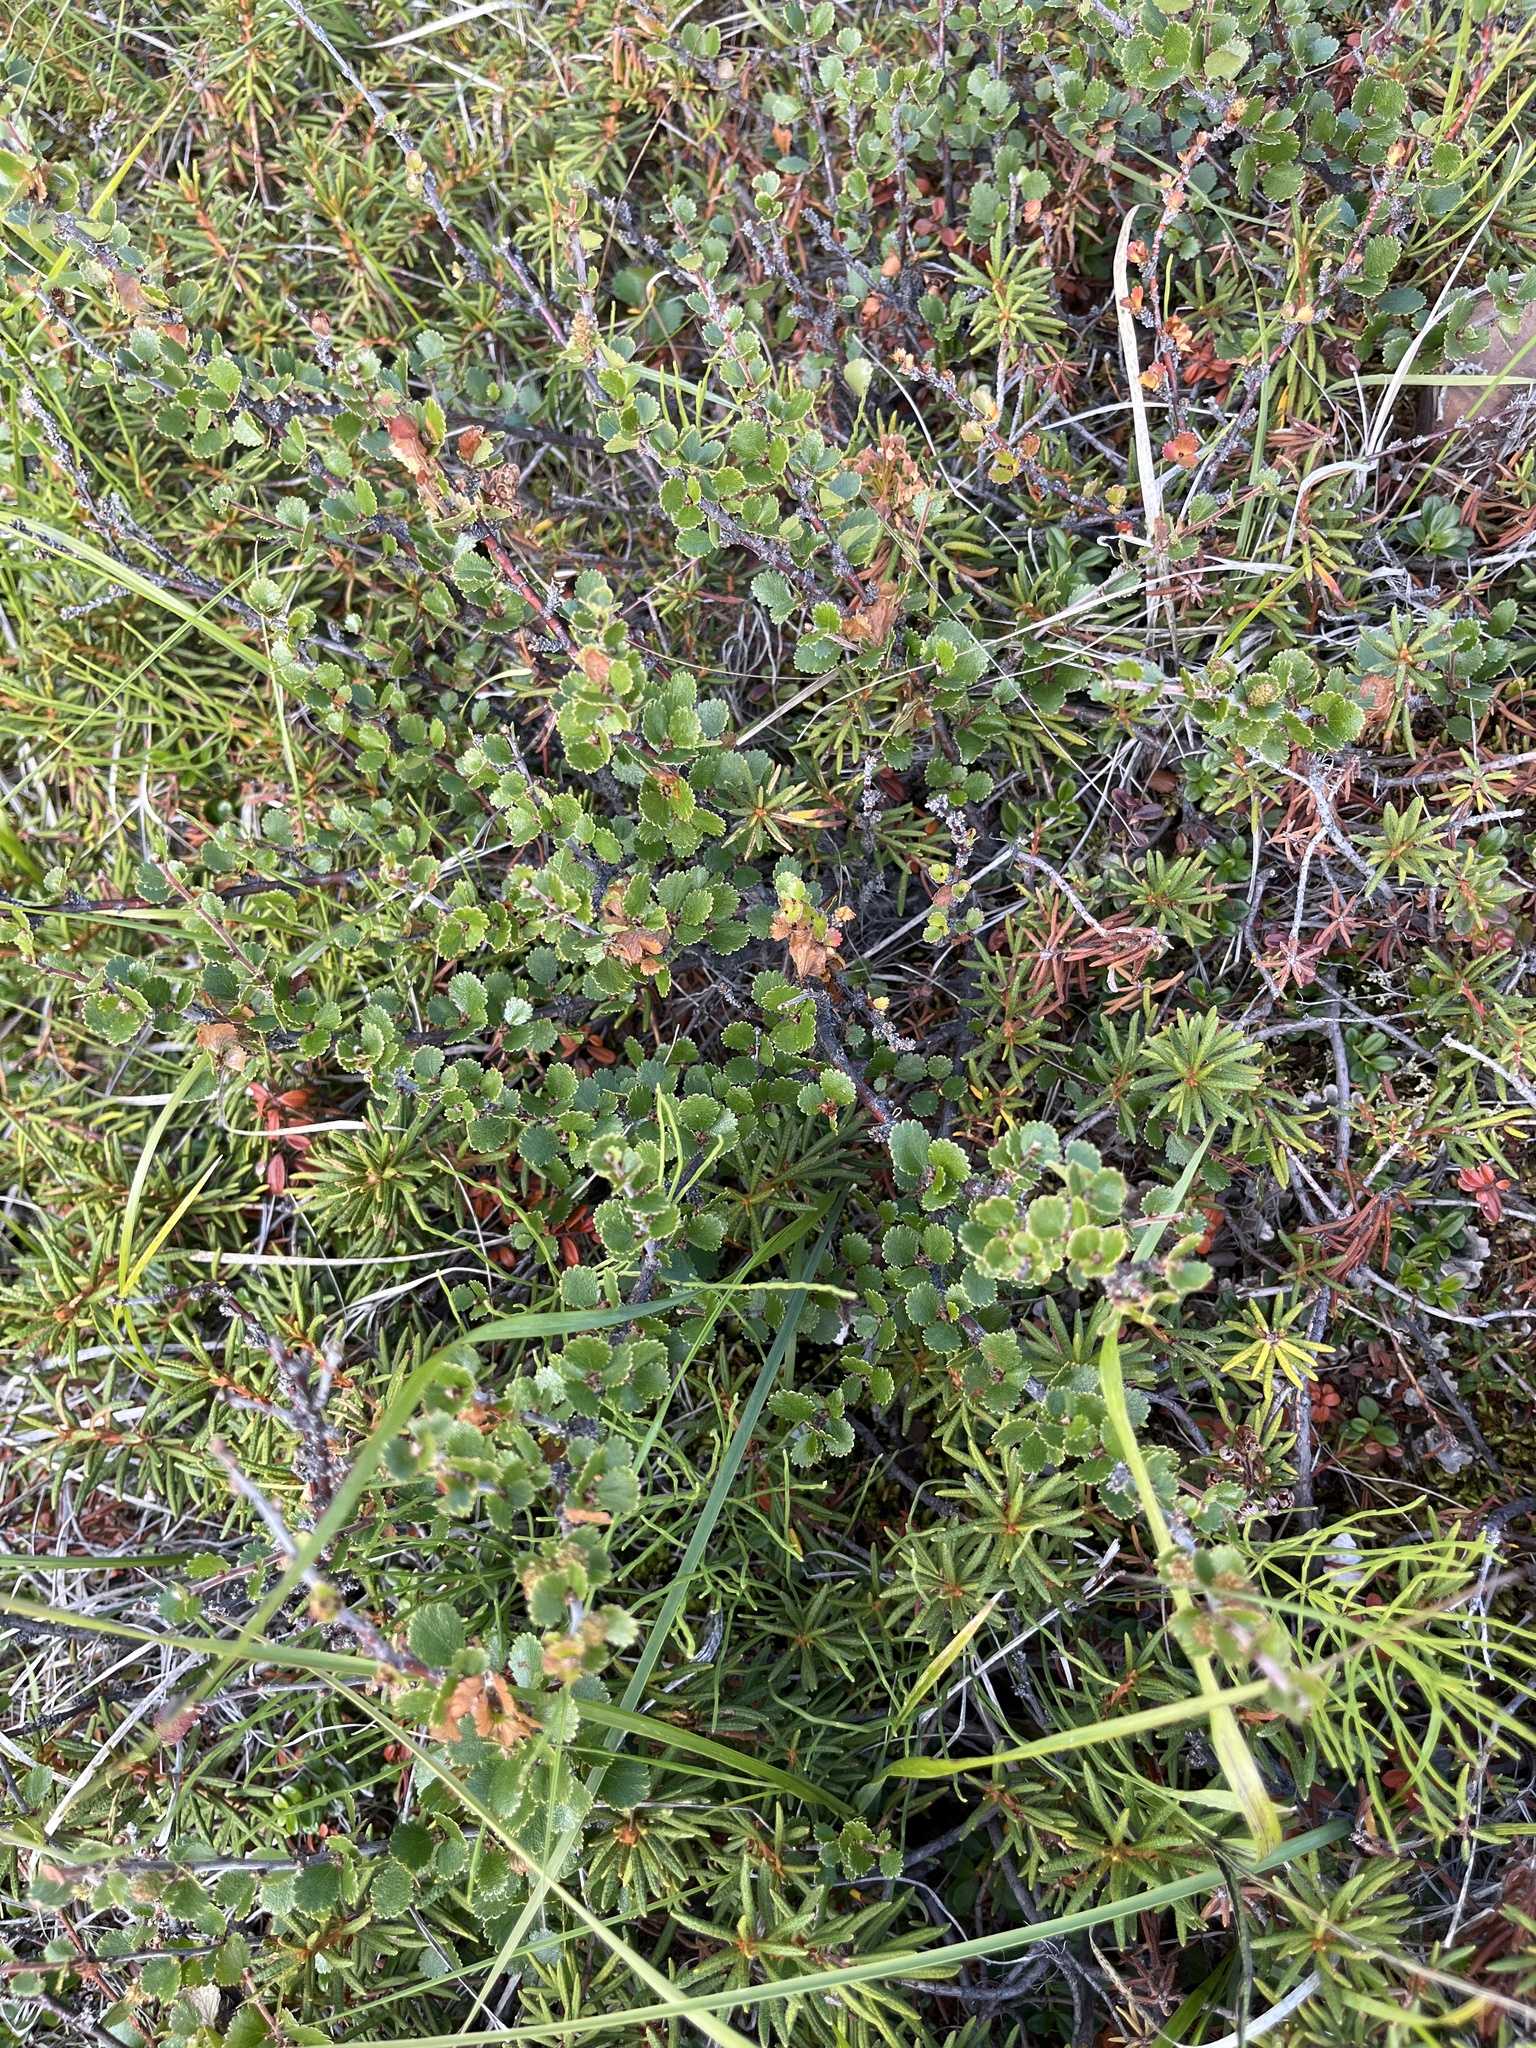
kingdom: Plantae
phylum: Tracheophyta
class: Magnoliopsida
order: Fagales
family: Betulaceae
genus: Betula
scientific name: Betula nana
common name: Arctic dwarf birch
